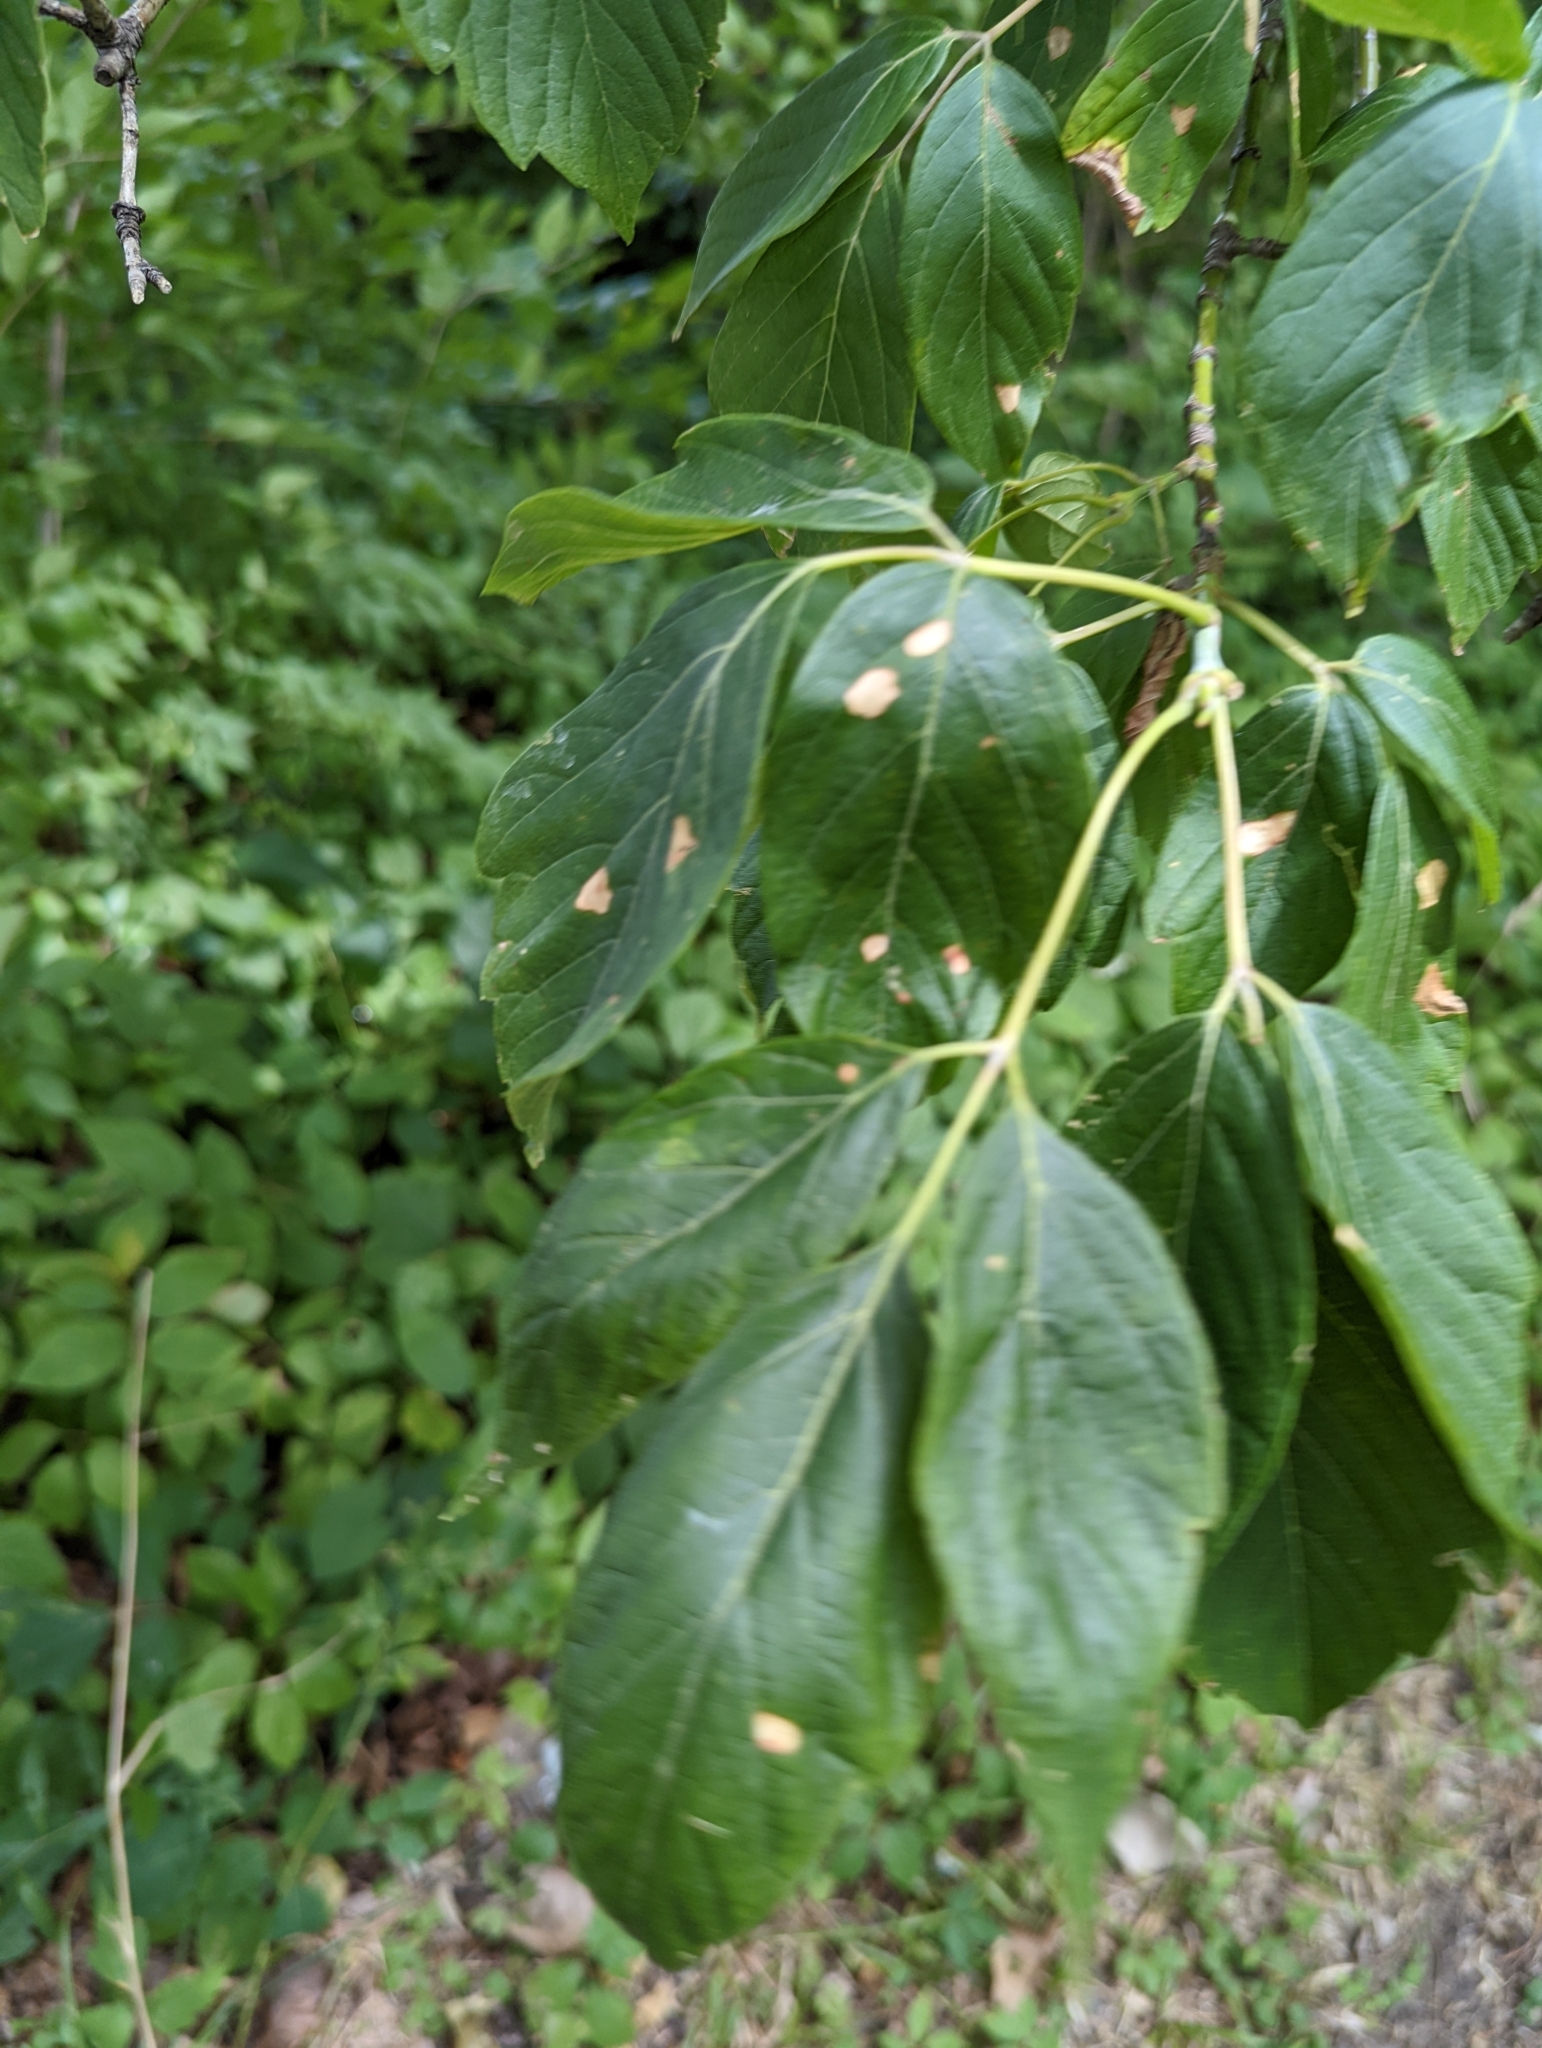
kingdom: Animalia
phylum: Arthropoda
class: Arachnida
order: Trombidiformes
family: Eriophyidae
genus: Aceria
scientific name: Aceria
